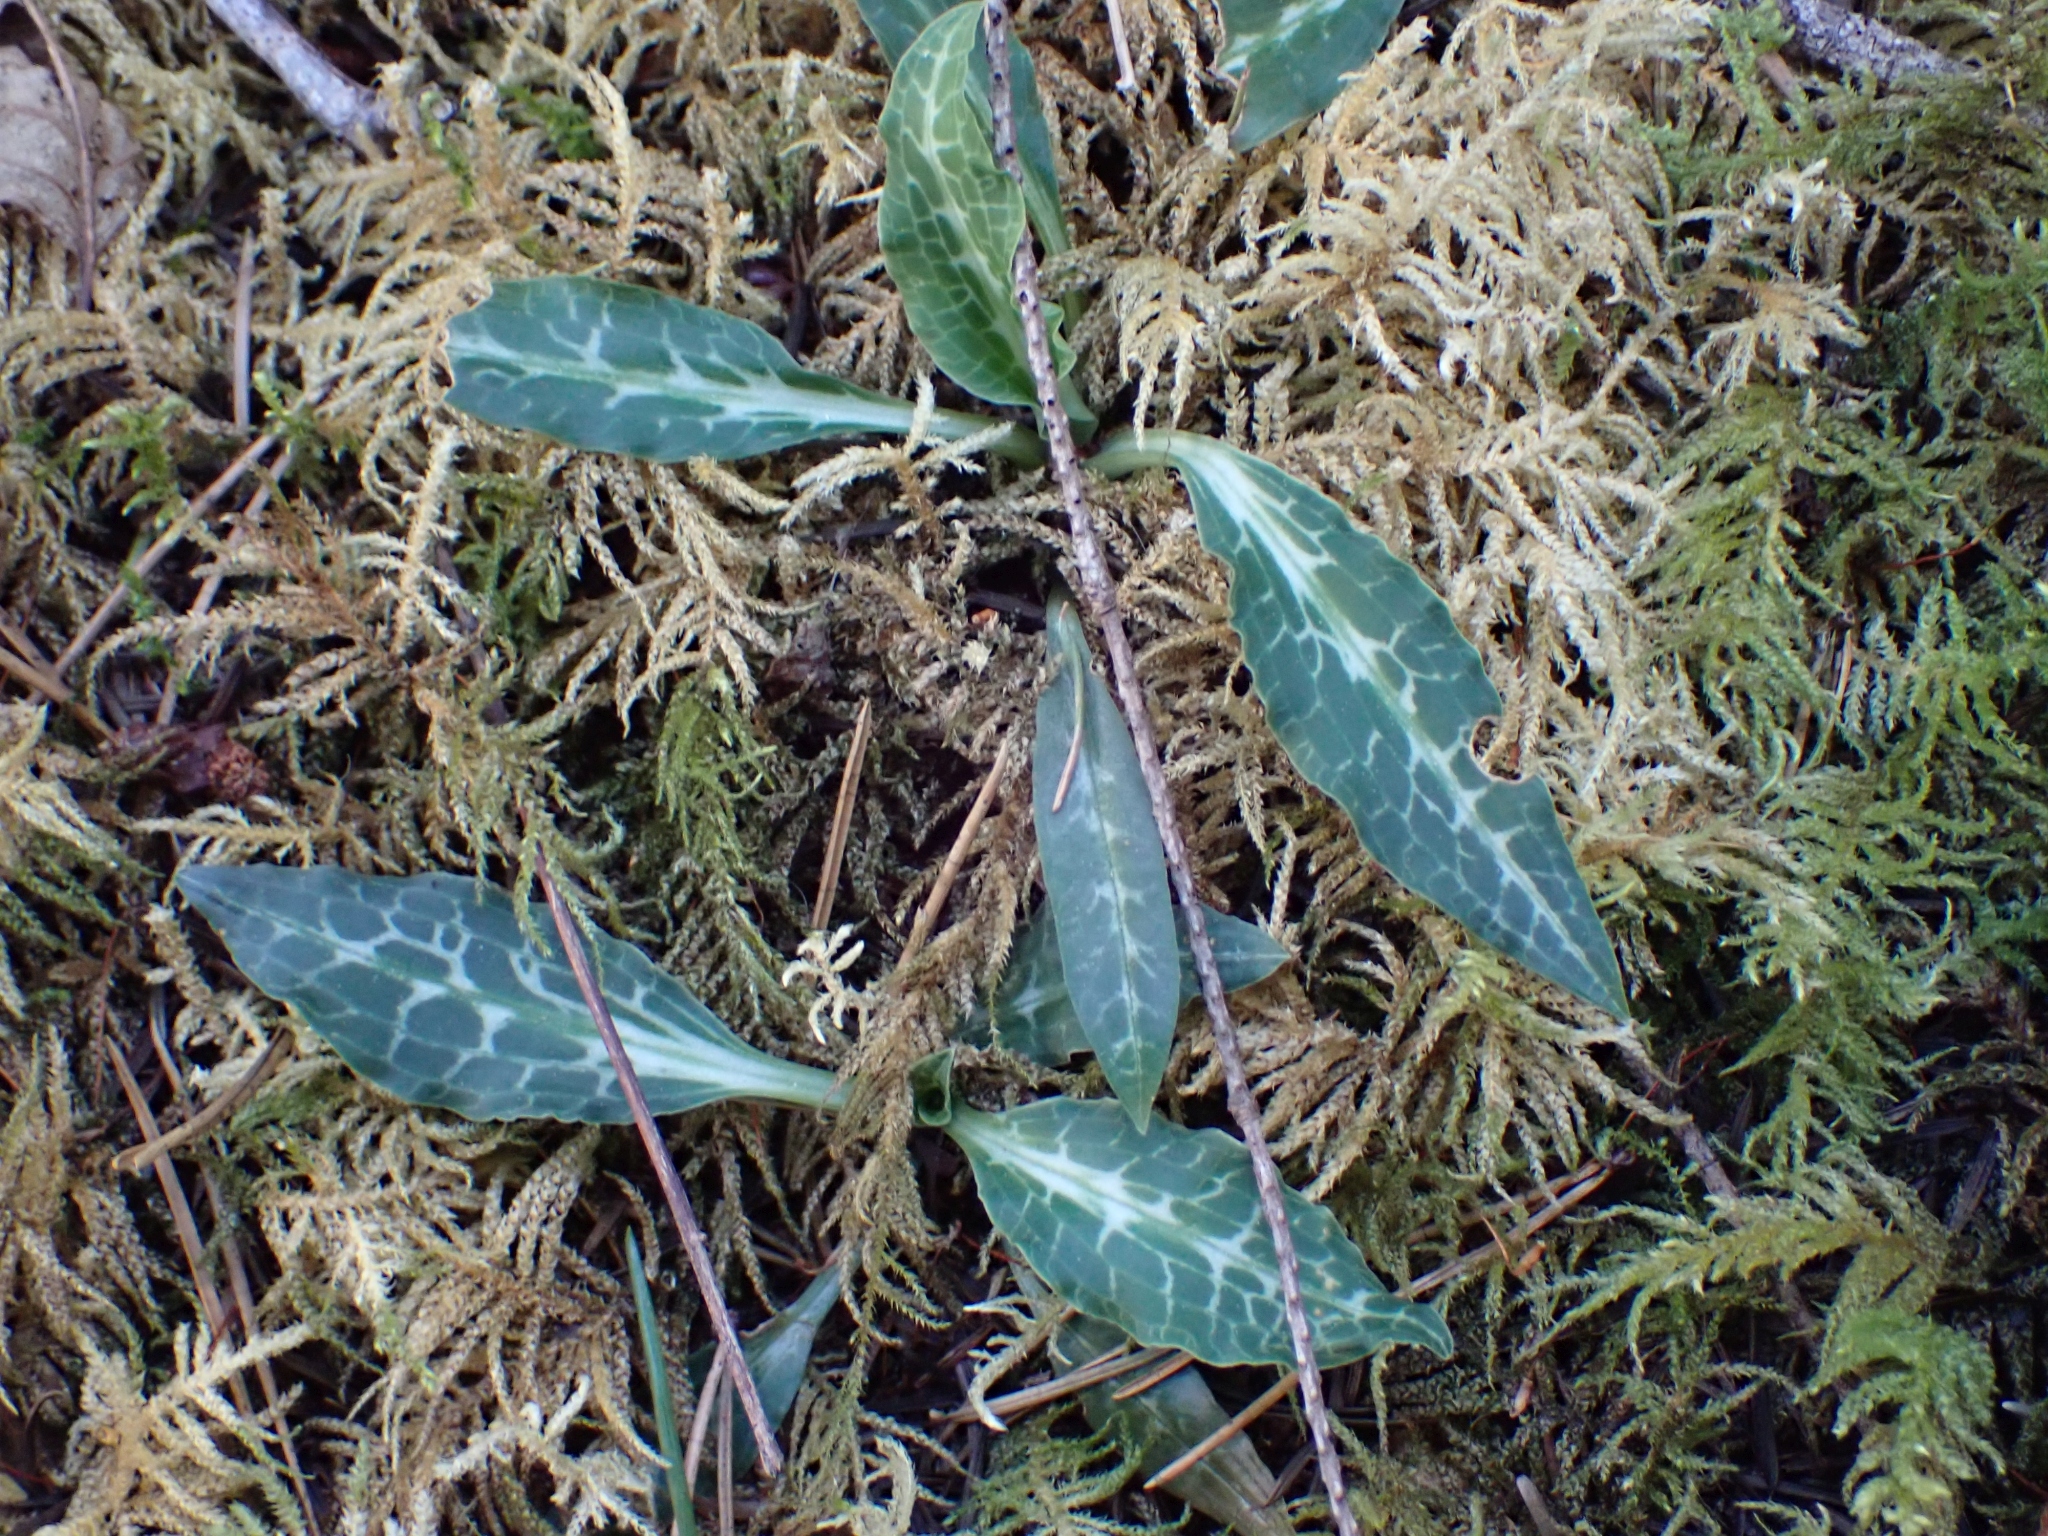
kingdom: Plantae
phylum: Tracheophyta
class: Liliopsida
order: Asparagales
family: Orchidaceae
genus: Goodyera
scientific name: Goodyera oblongifolia
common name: Giant rattlesnake-plantain
